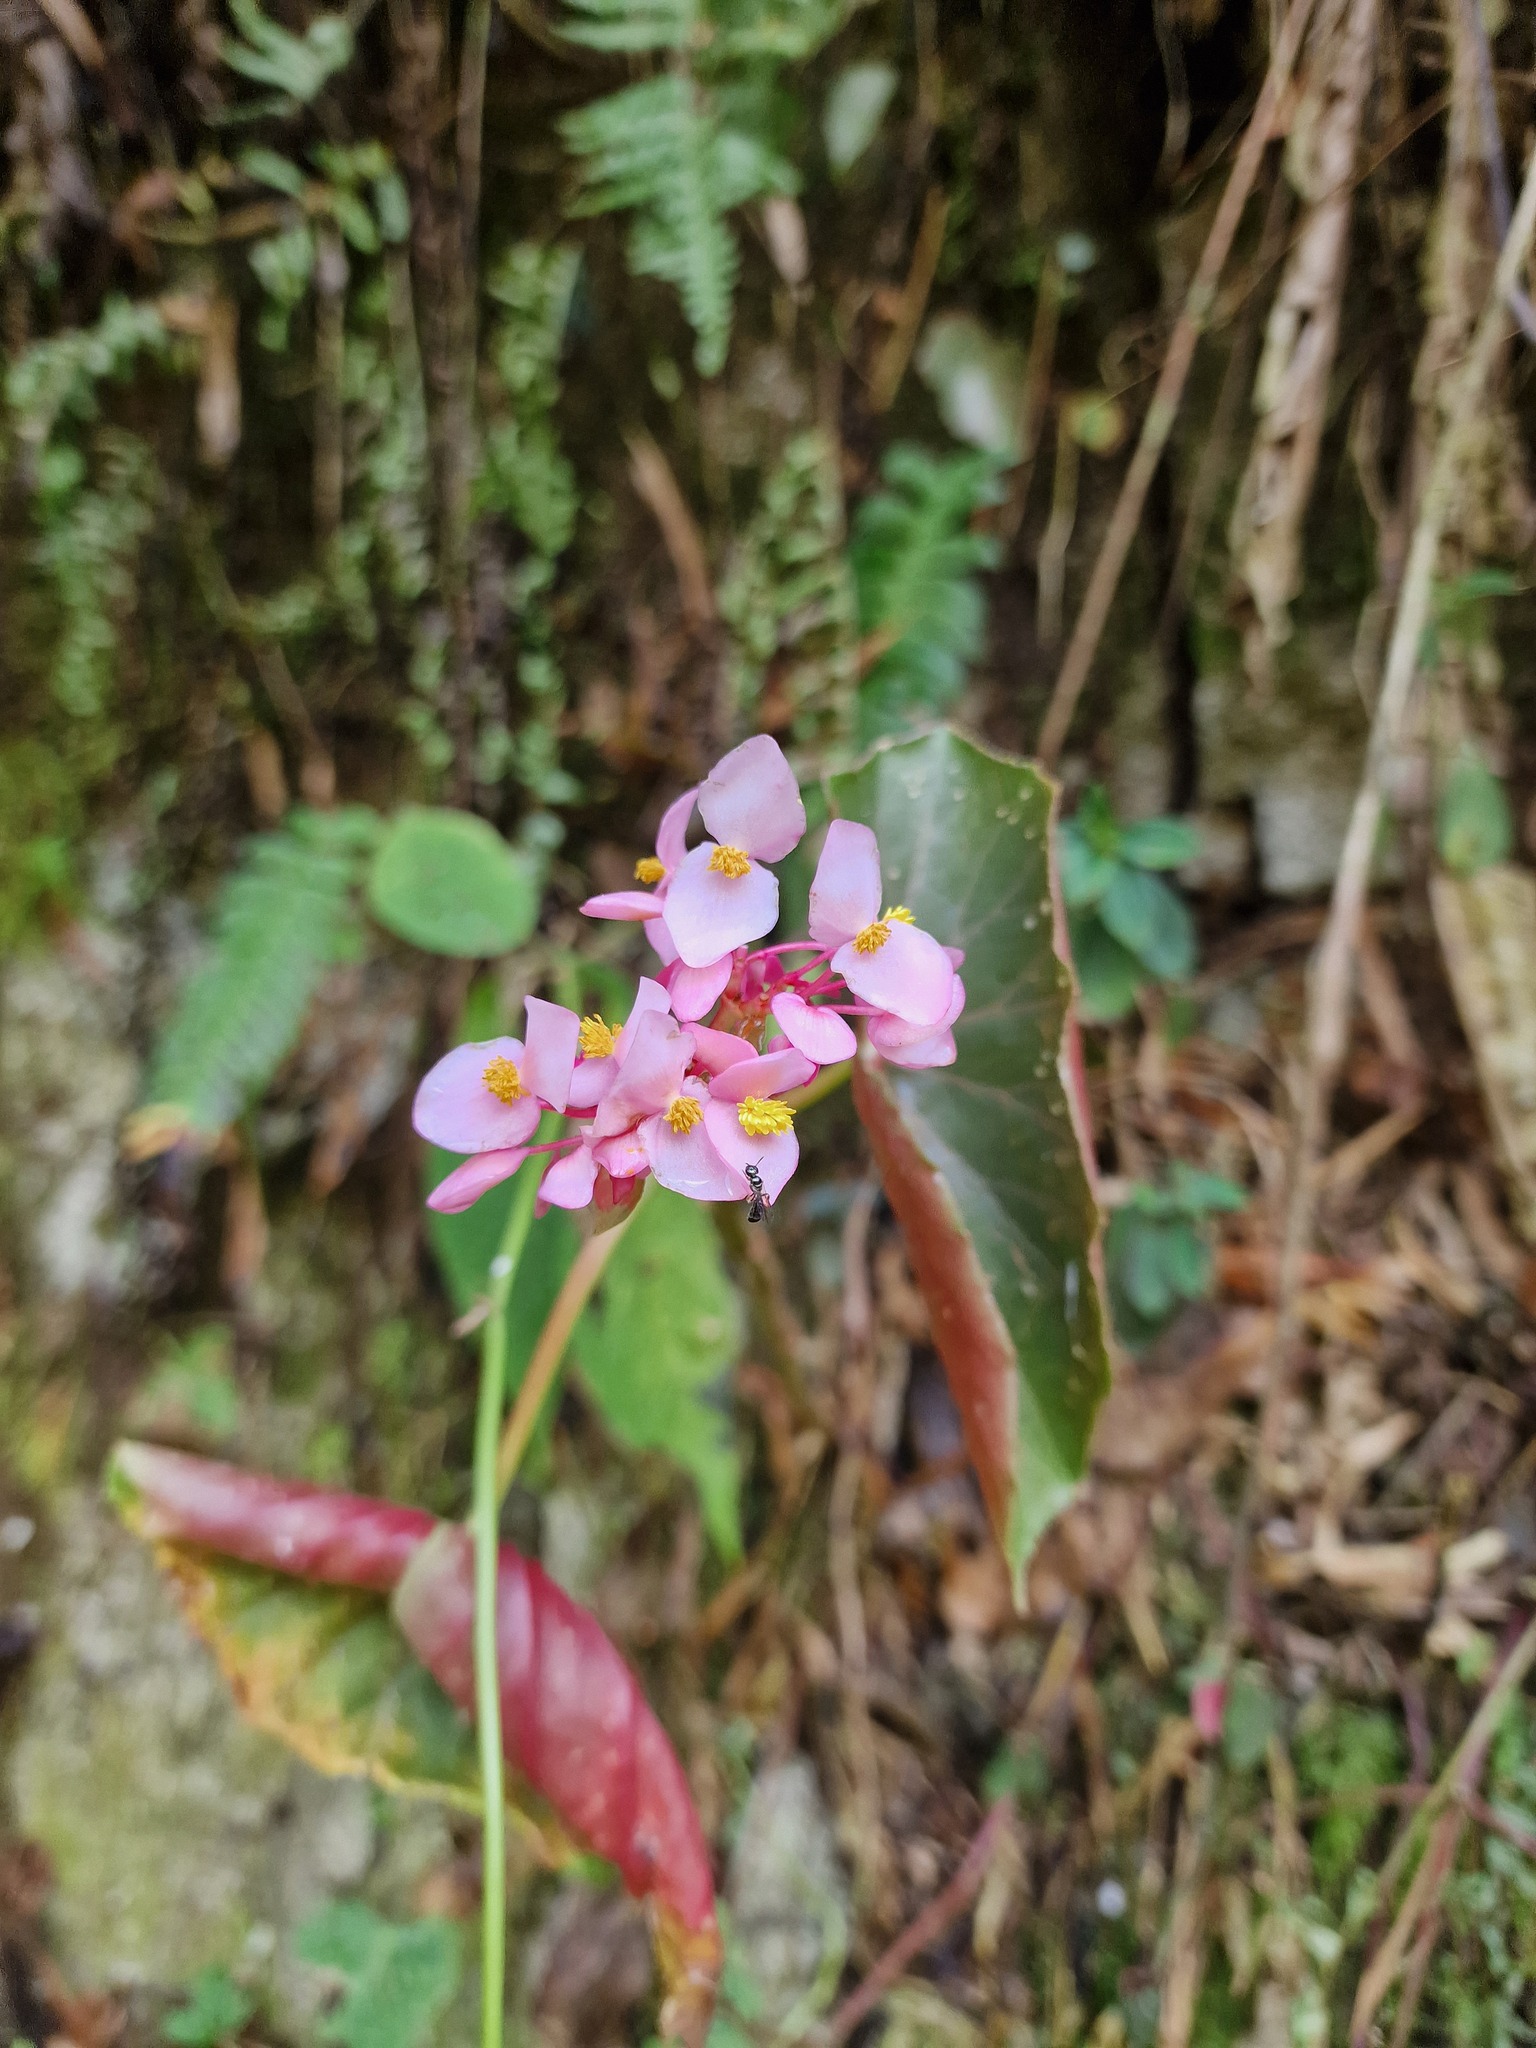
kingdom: Plantae
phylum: Tracheophyta
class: Magnoliopsida
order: Cucurbitales
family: Begoniaceae
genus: Begonia
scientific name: Begonia bracteosa
